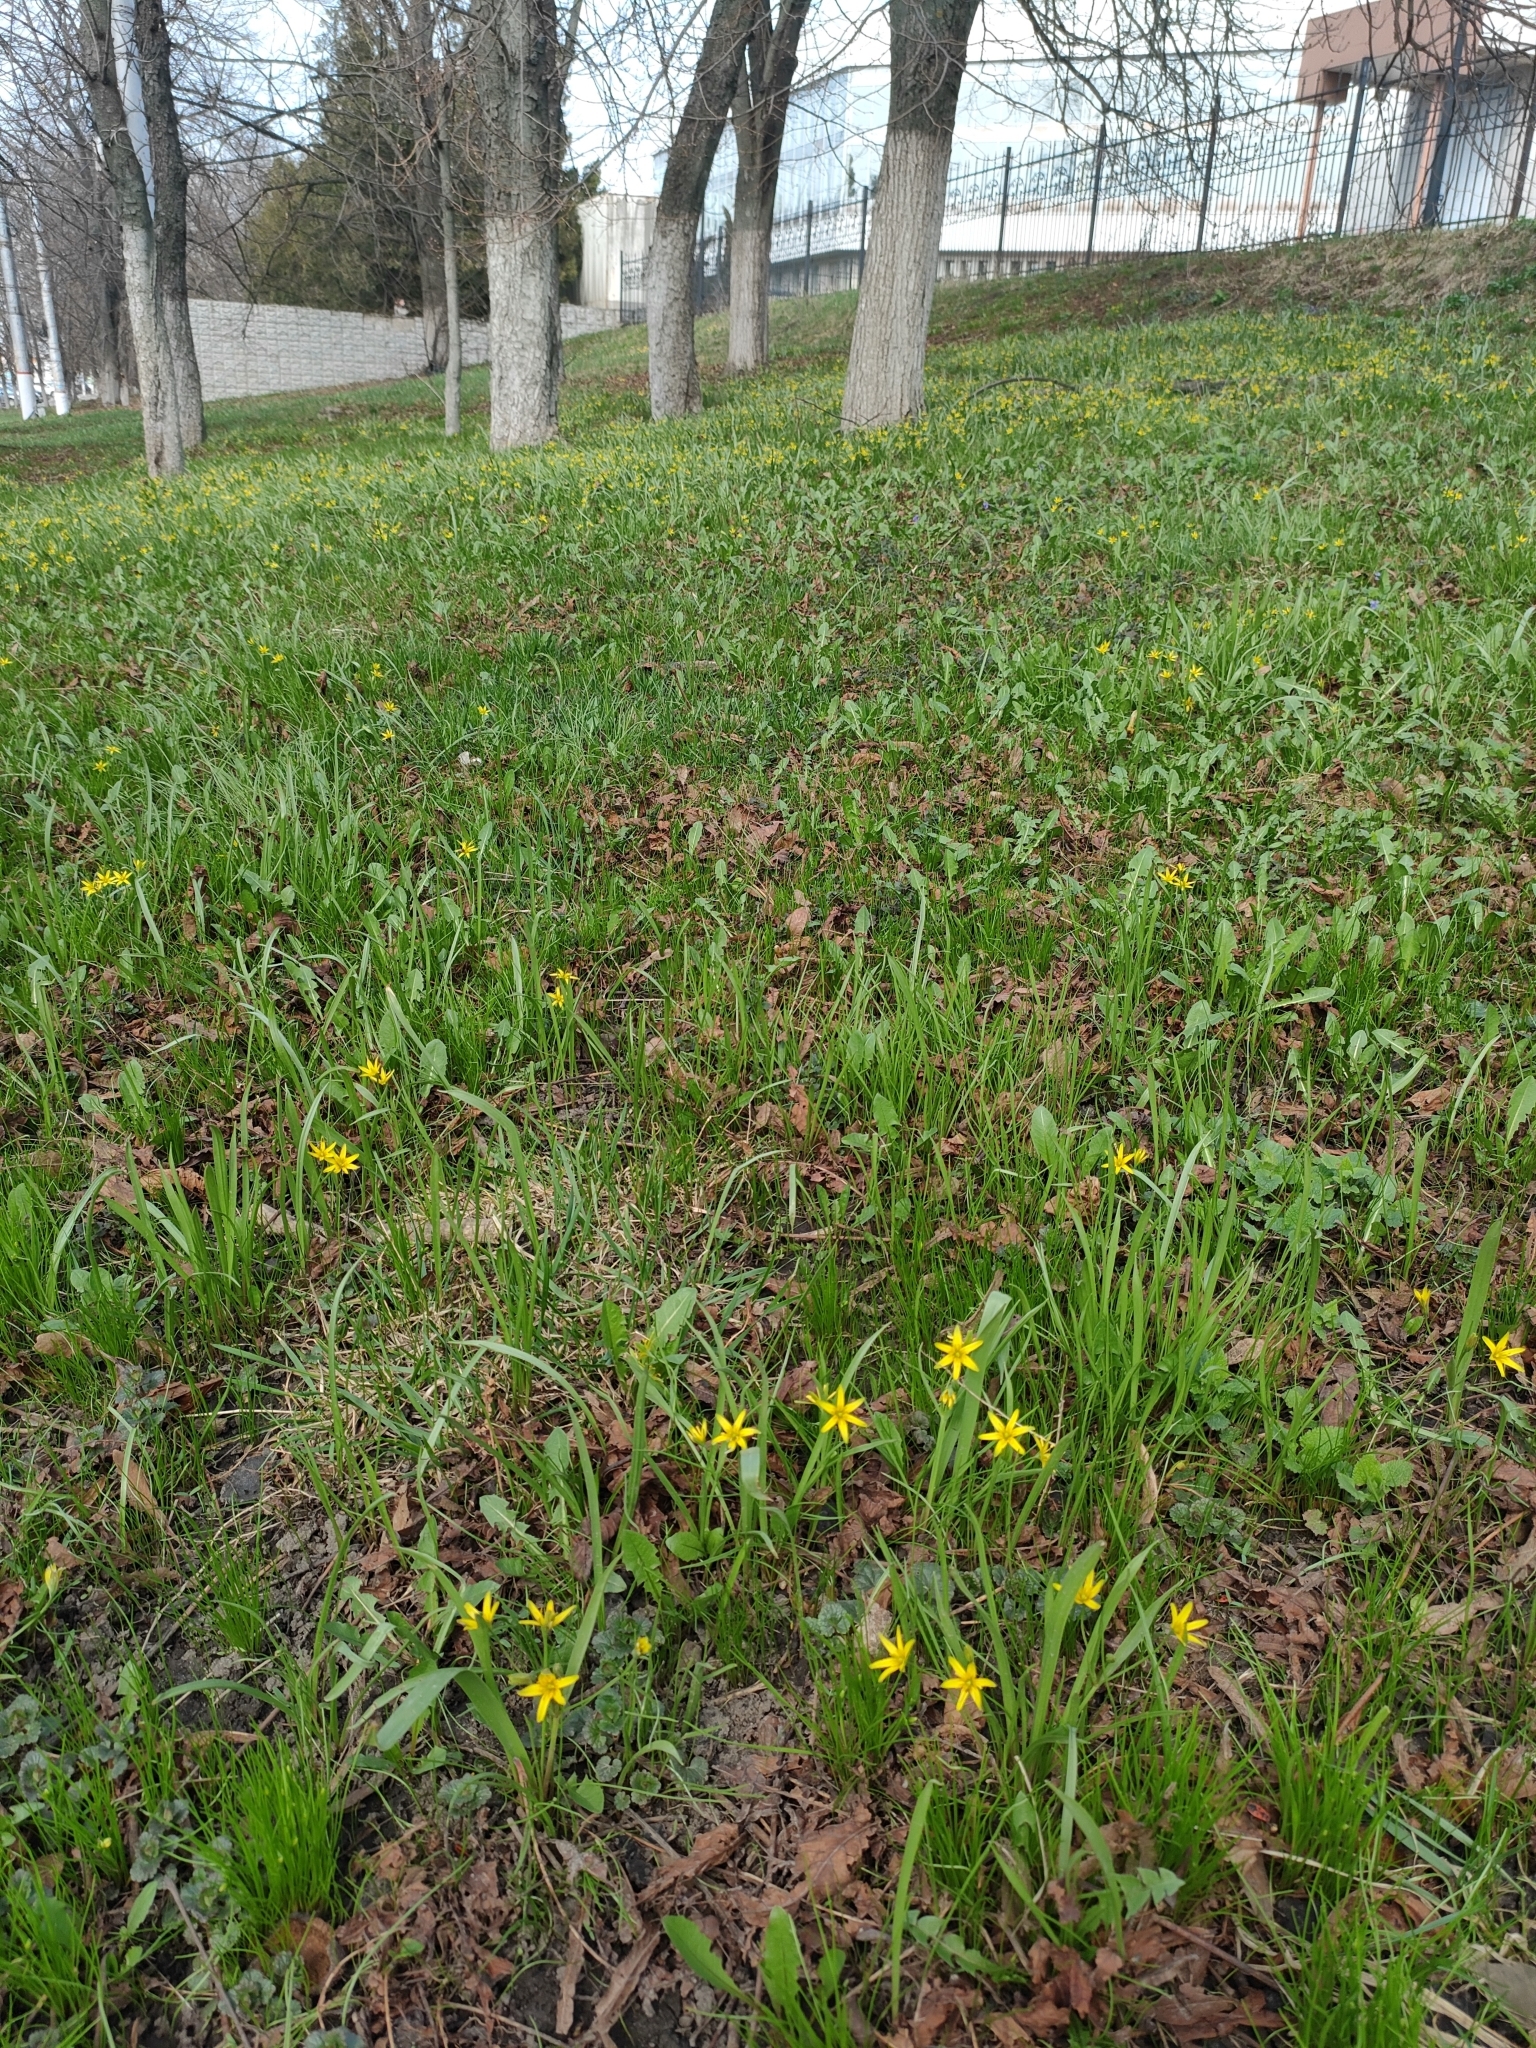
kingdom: Plantae
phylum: Tracheophyta
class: Liliopsida
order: Liliales
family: Liliaceae
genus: Gagea
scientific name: Gagea lutea
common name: Yellow star-of-bethlehem
